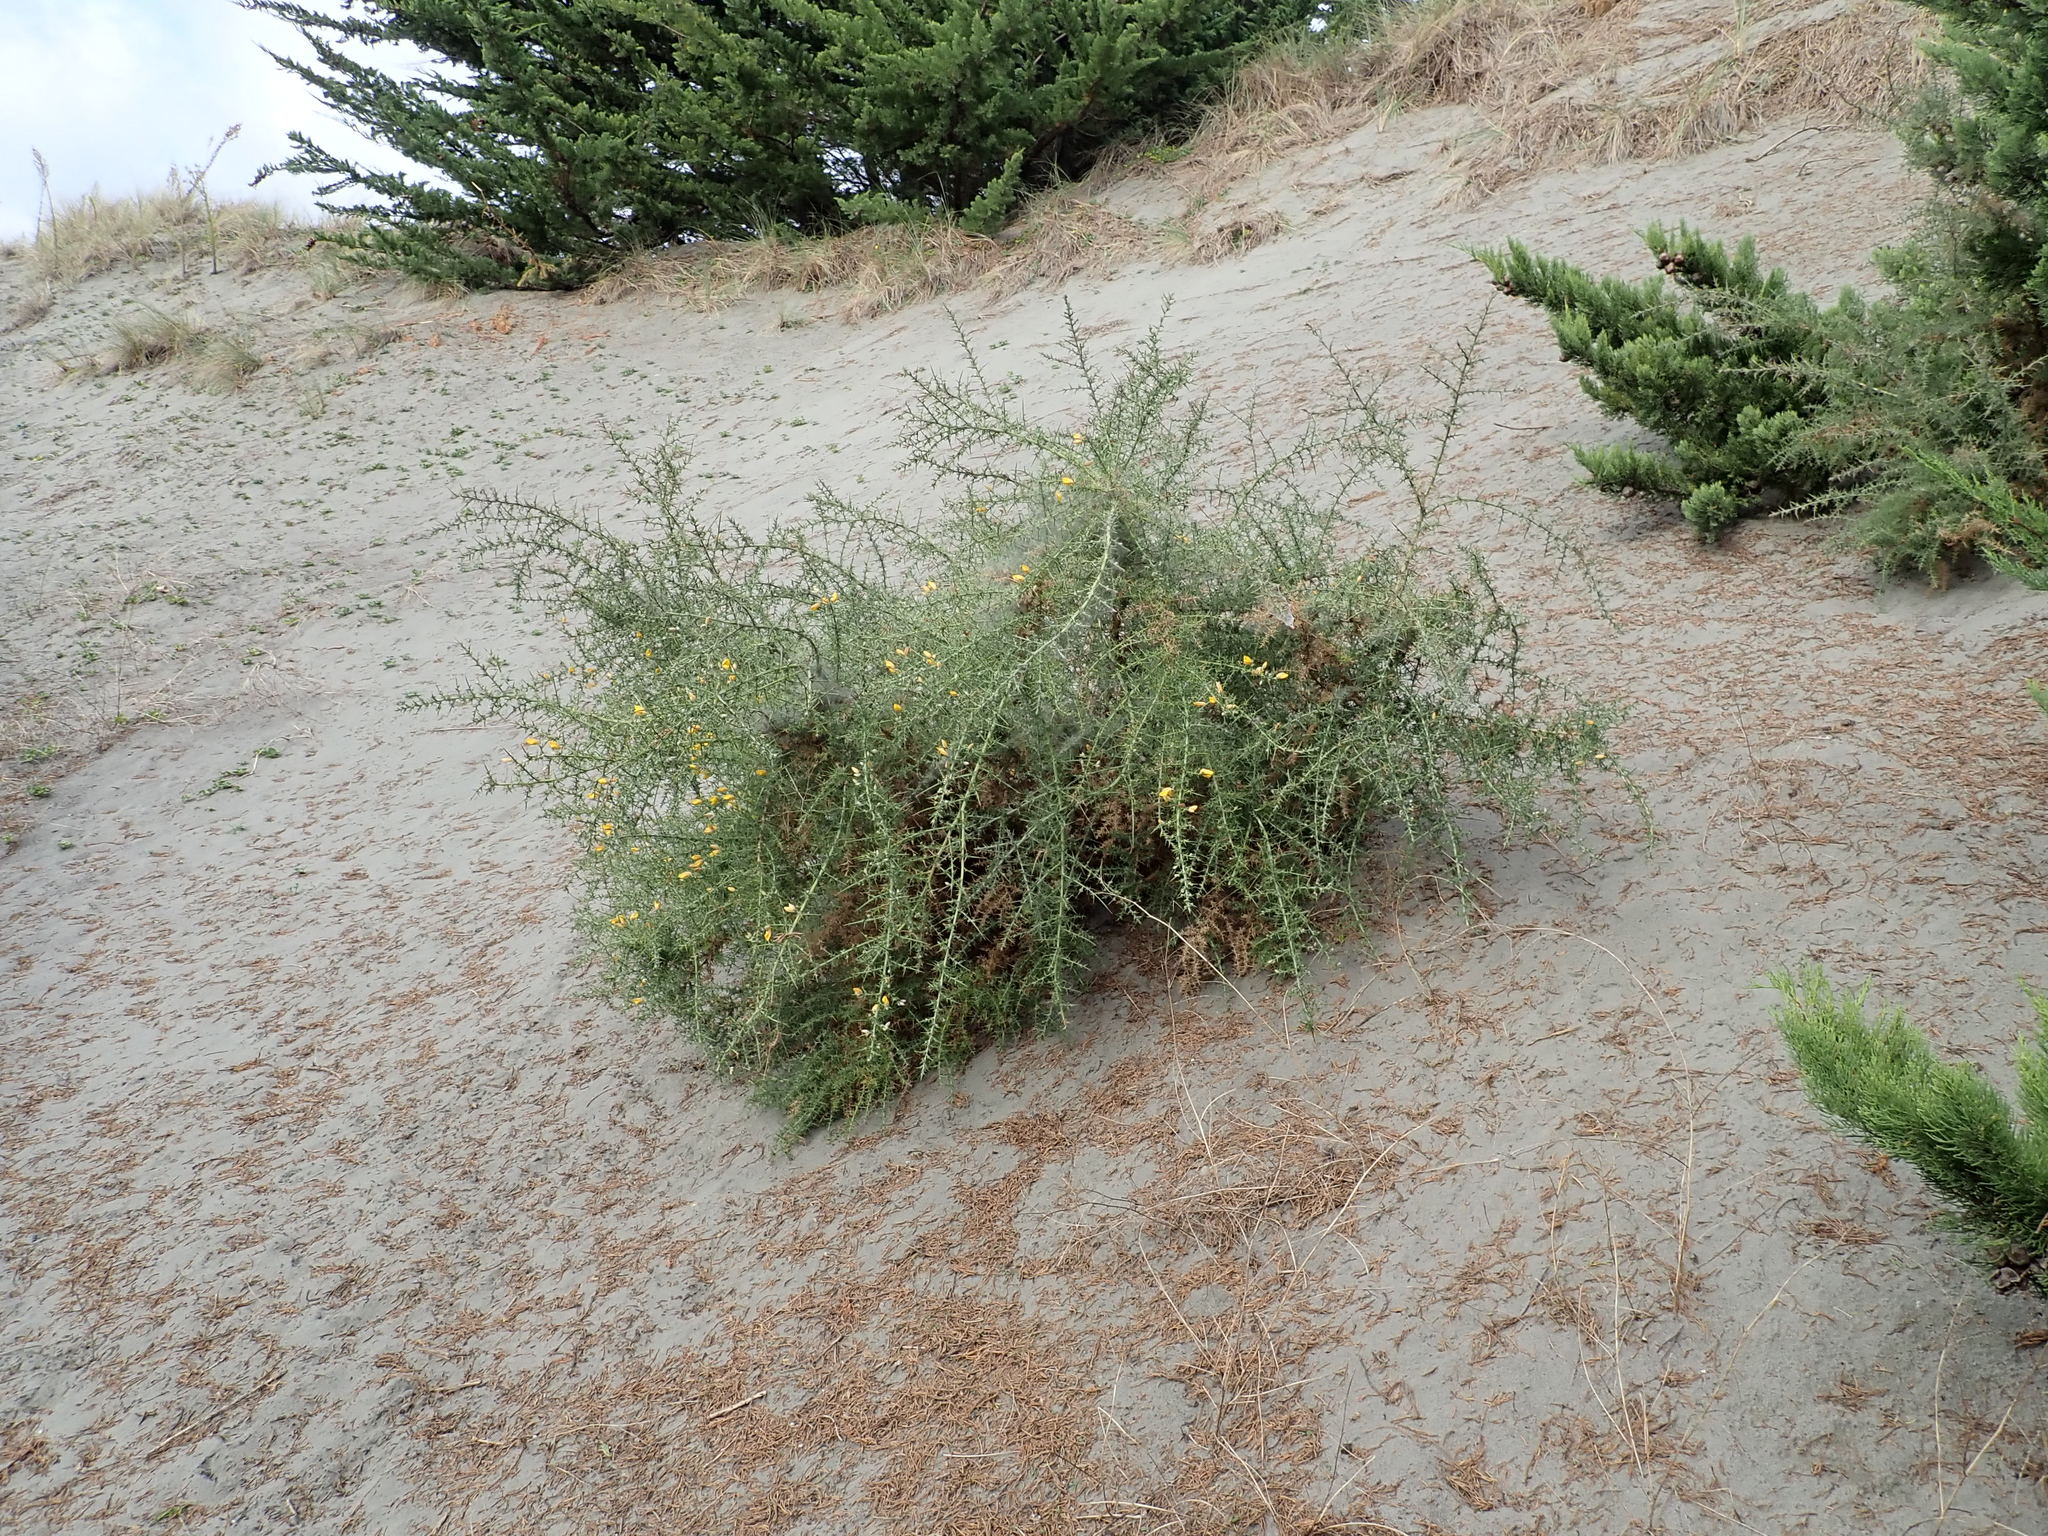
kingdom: Plantae
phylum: Tracheophyta
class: Magnoliopsida
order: Fabales
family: Fabaceae
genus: Ulex
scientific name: Ulex europaeus
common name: Common gorse
